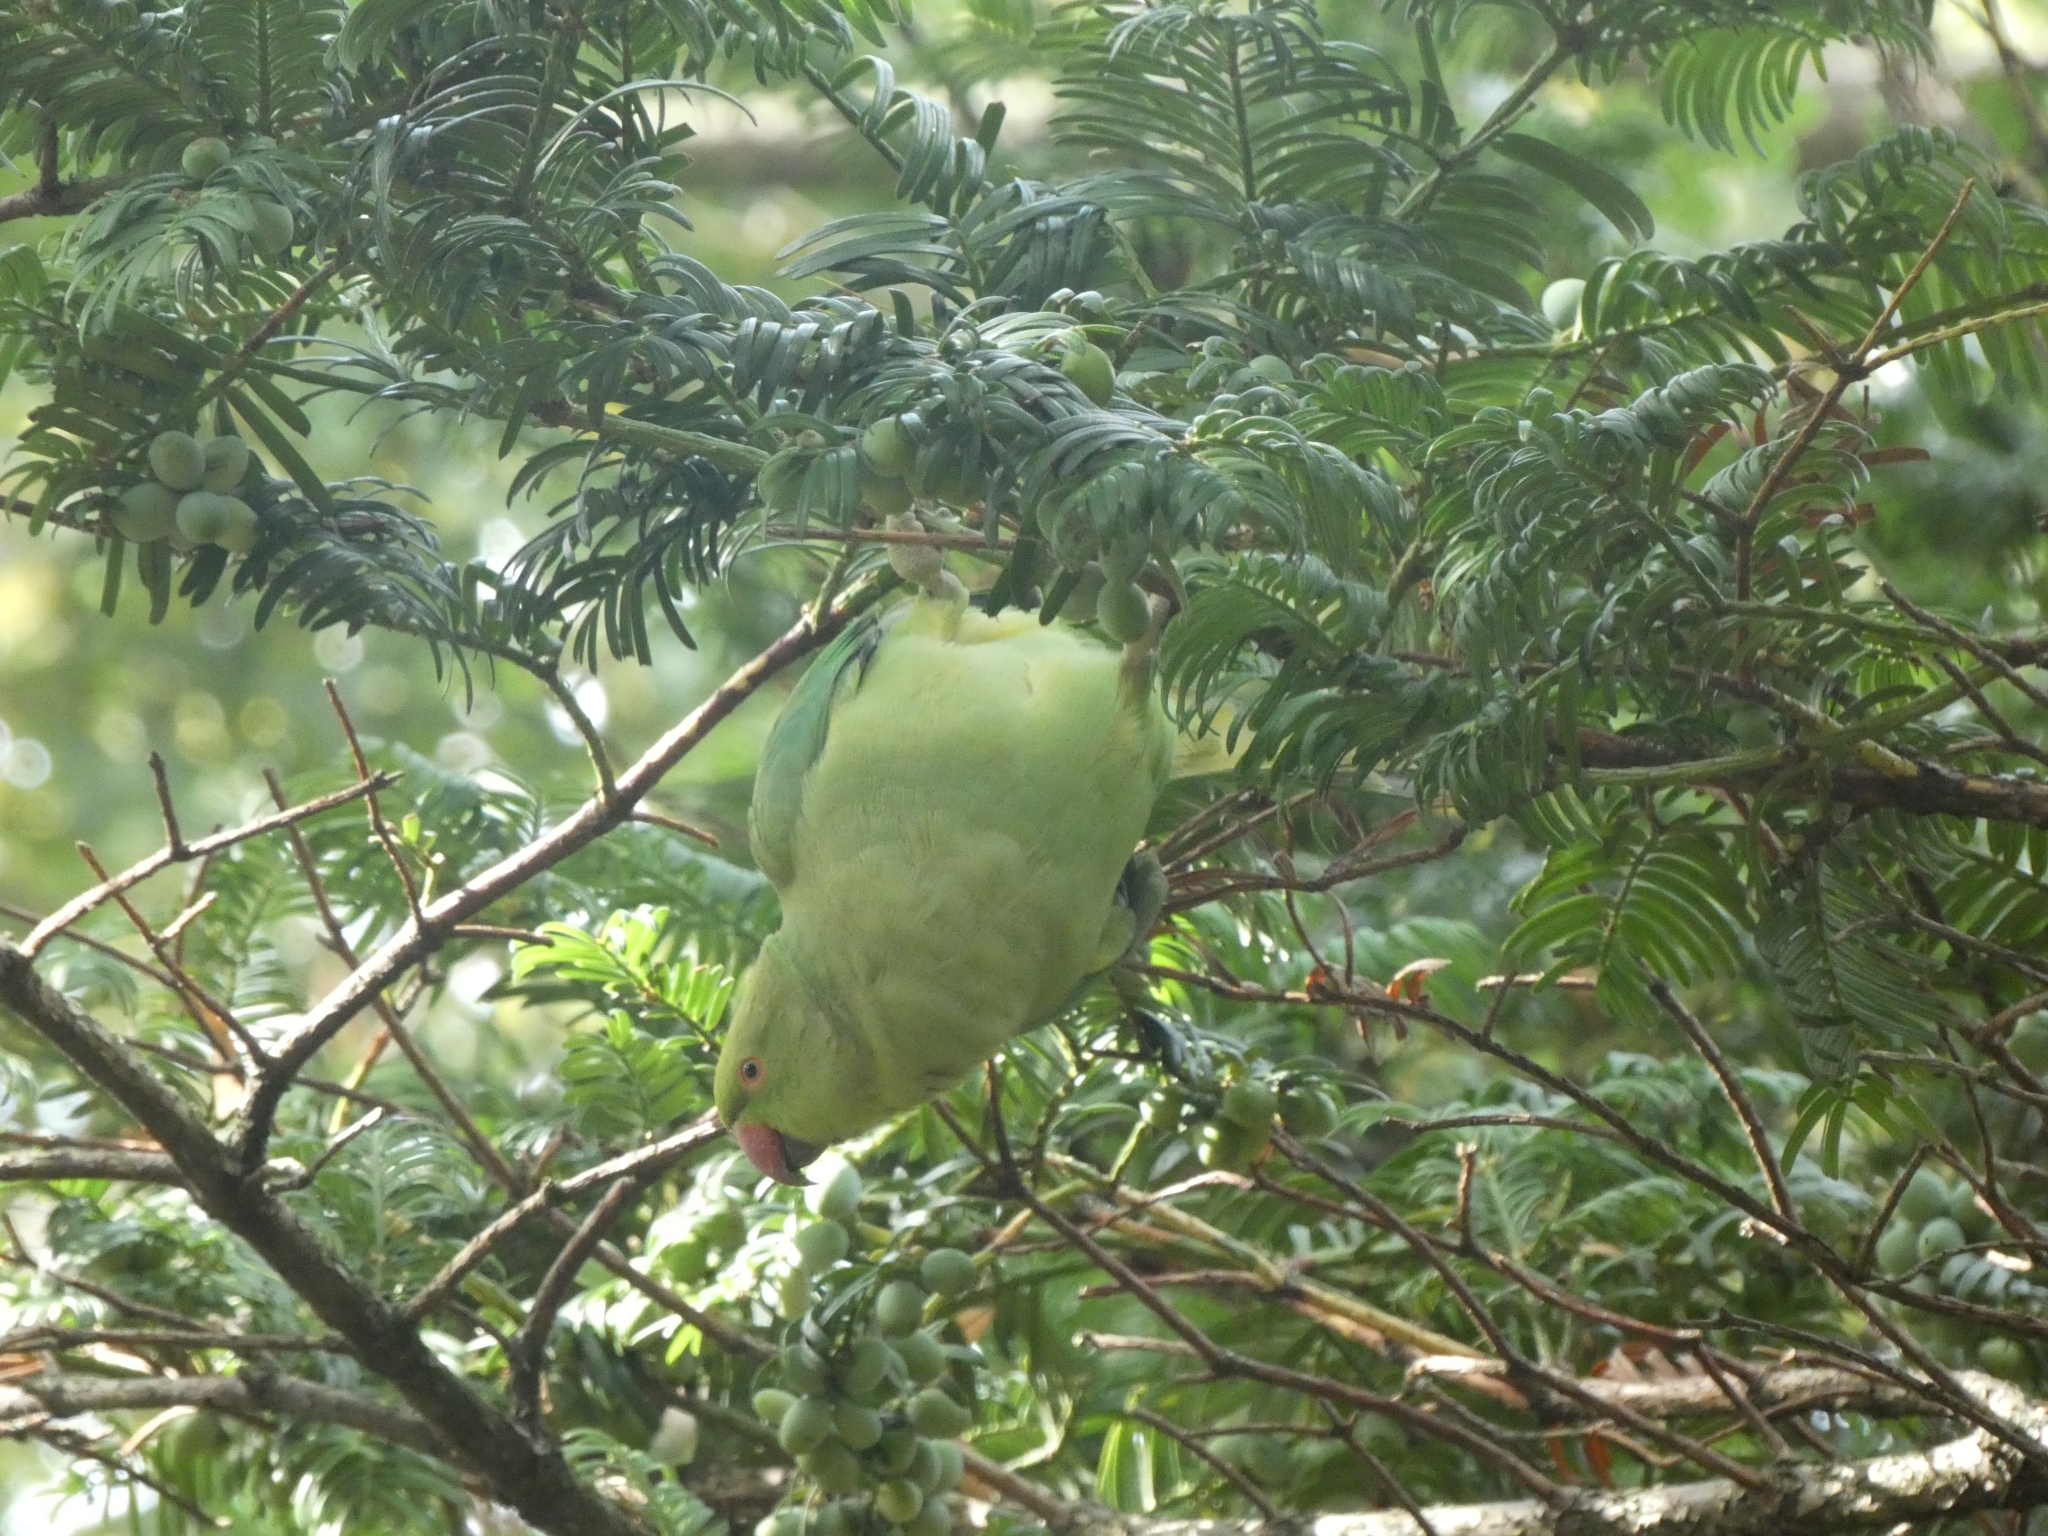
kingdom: Animalia
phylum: Chordata
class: Aves
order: Psittaciformes
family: Psittacidae
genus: Psittacula
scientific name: Psittacula krameri
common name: Rose-ringed parakeet
